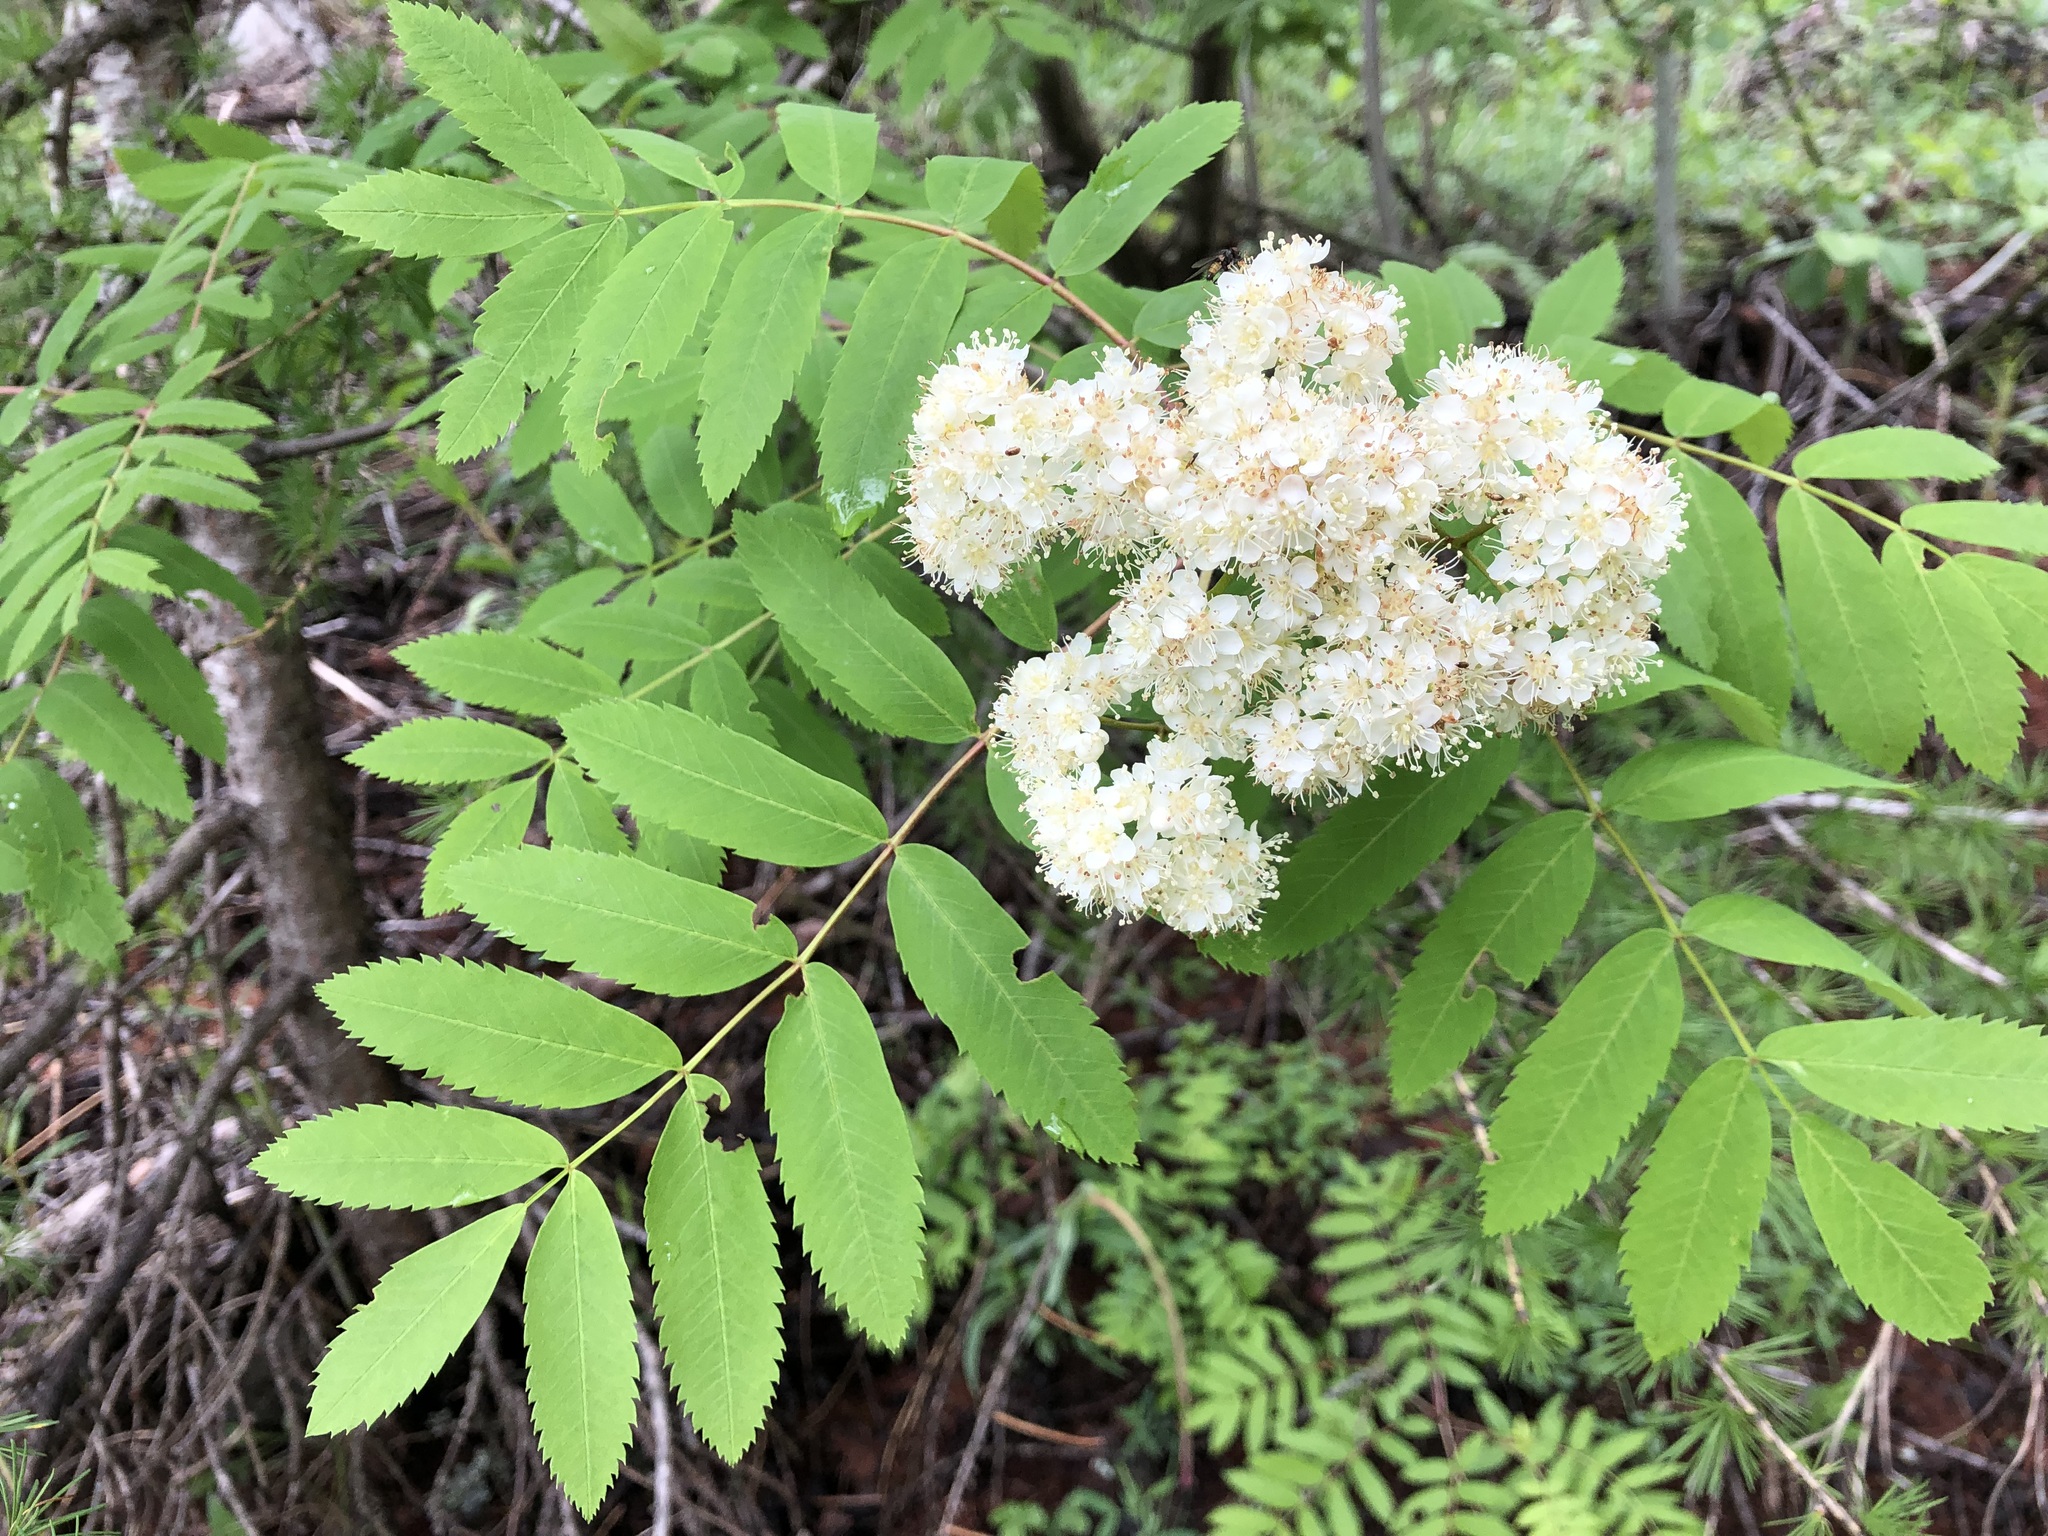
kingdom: Plantae
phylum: Tracheophyta
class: Magnoliopsida
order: Rosales
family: Rosaceae
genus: Sorbus
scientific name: Sorbus aucuparia
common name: Rowan
